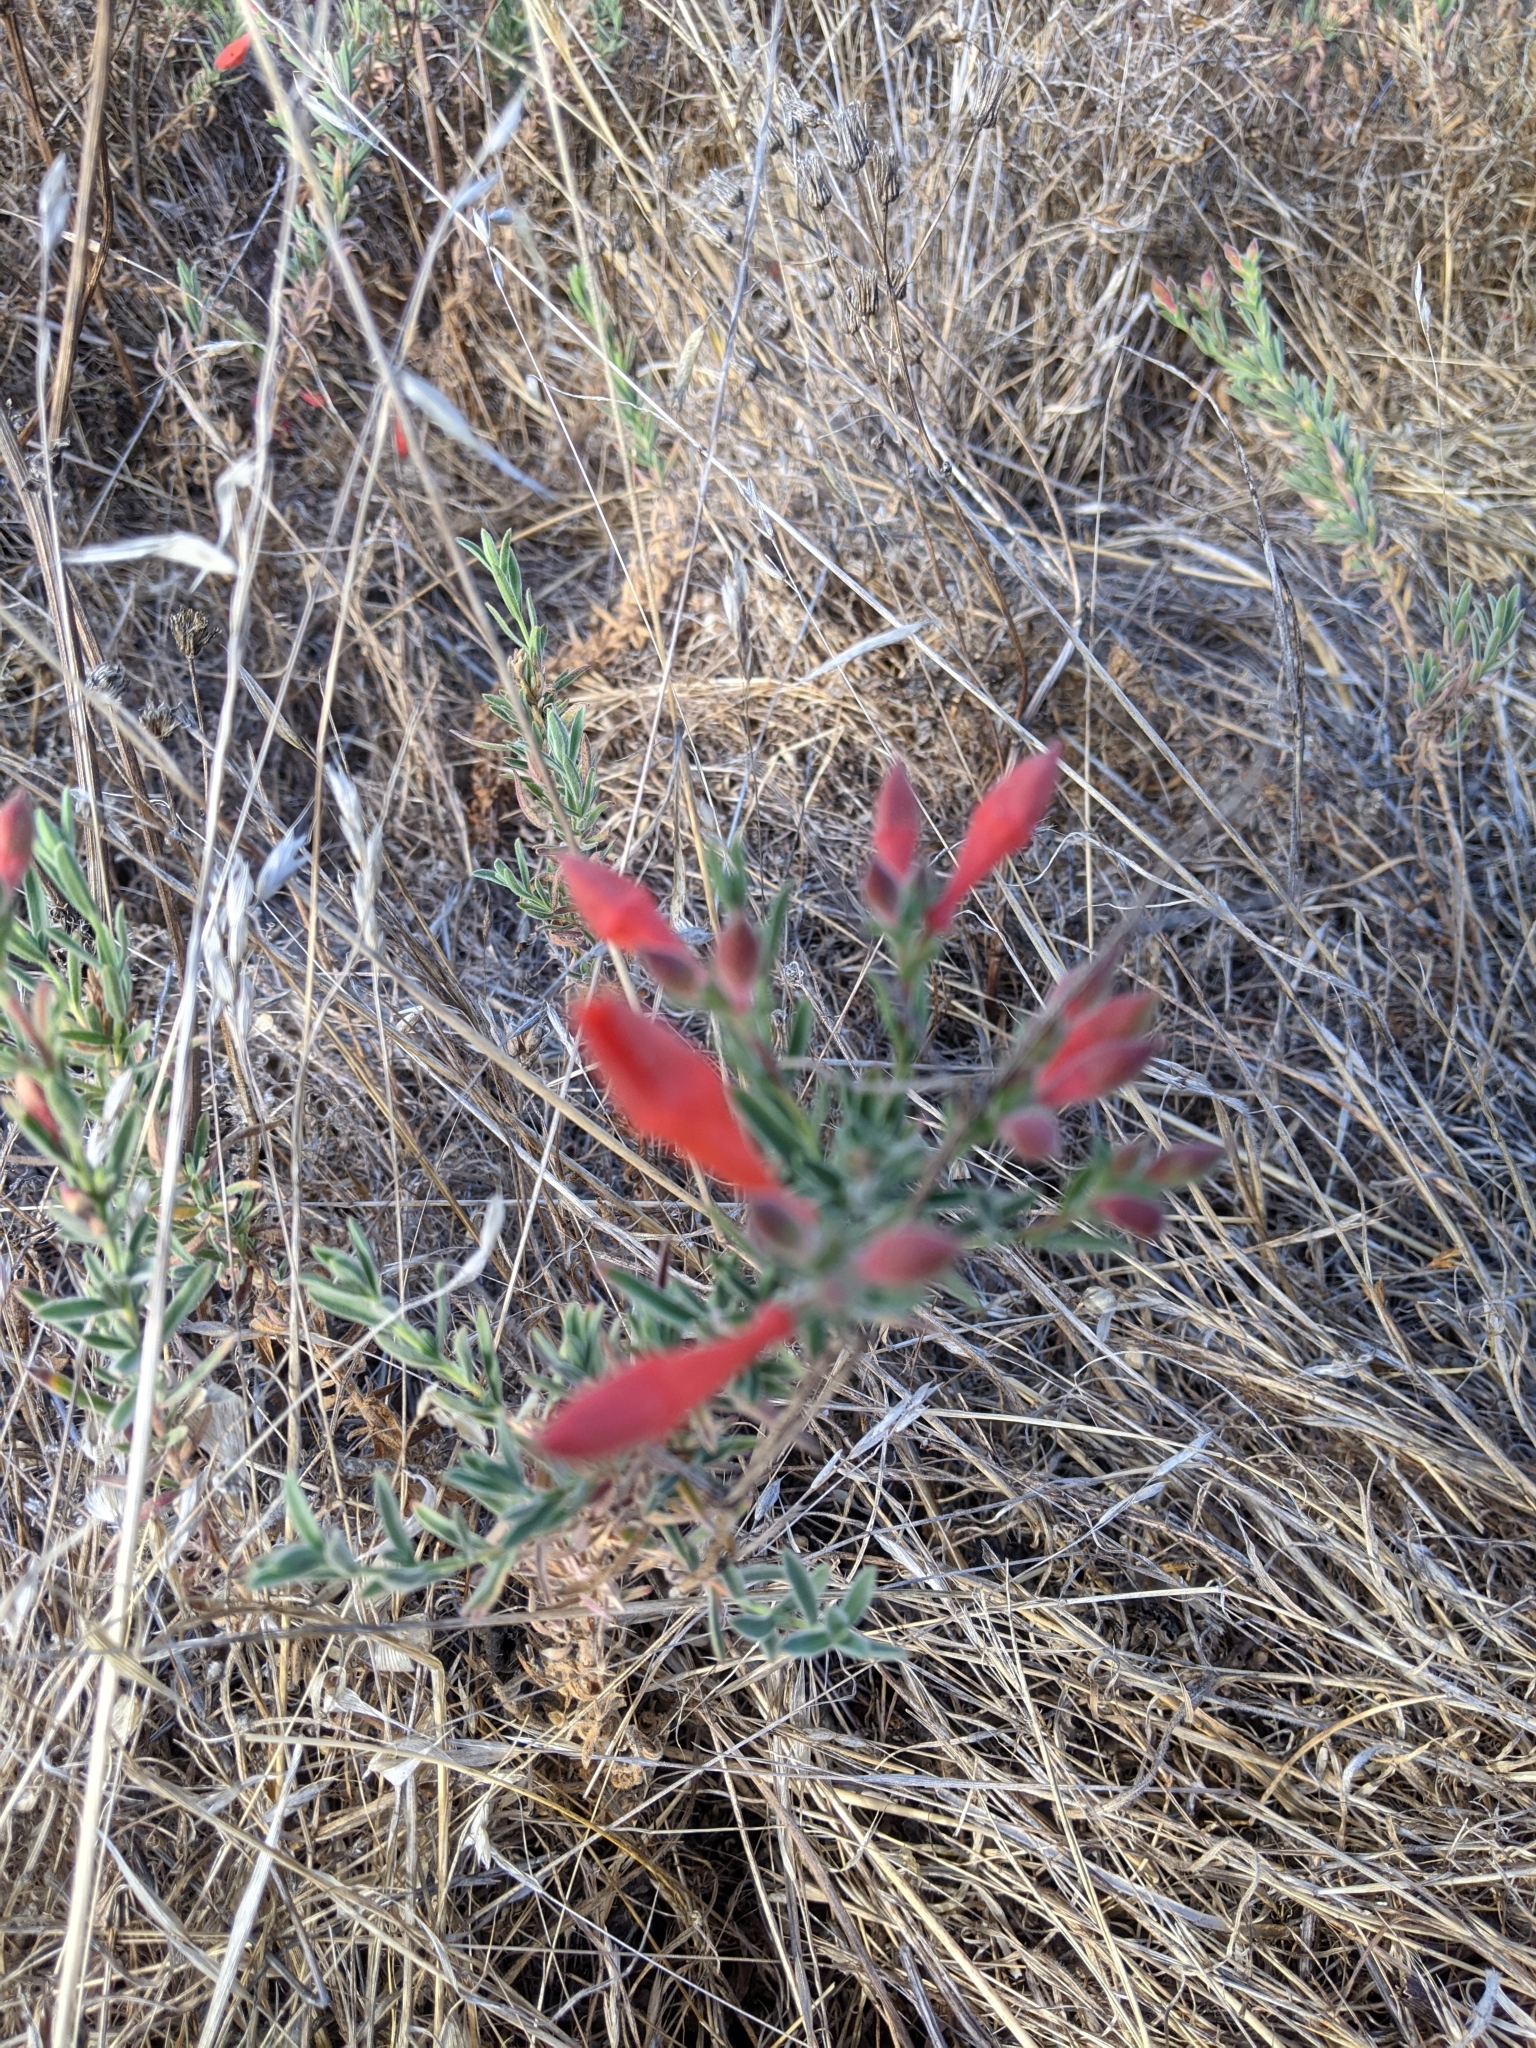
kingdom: Plantae
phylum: Tracheophyta
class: Magnoliopsida
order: Myrtales
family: Onagraceae
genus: Epilobium
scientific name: Epilobium canum
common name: California-fuchsia
